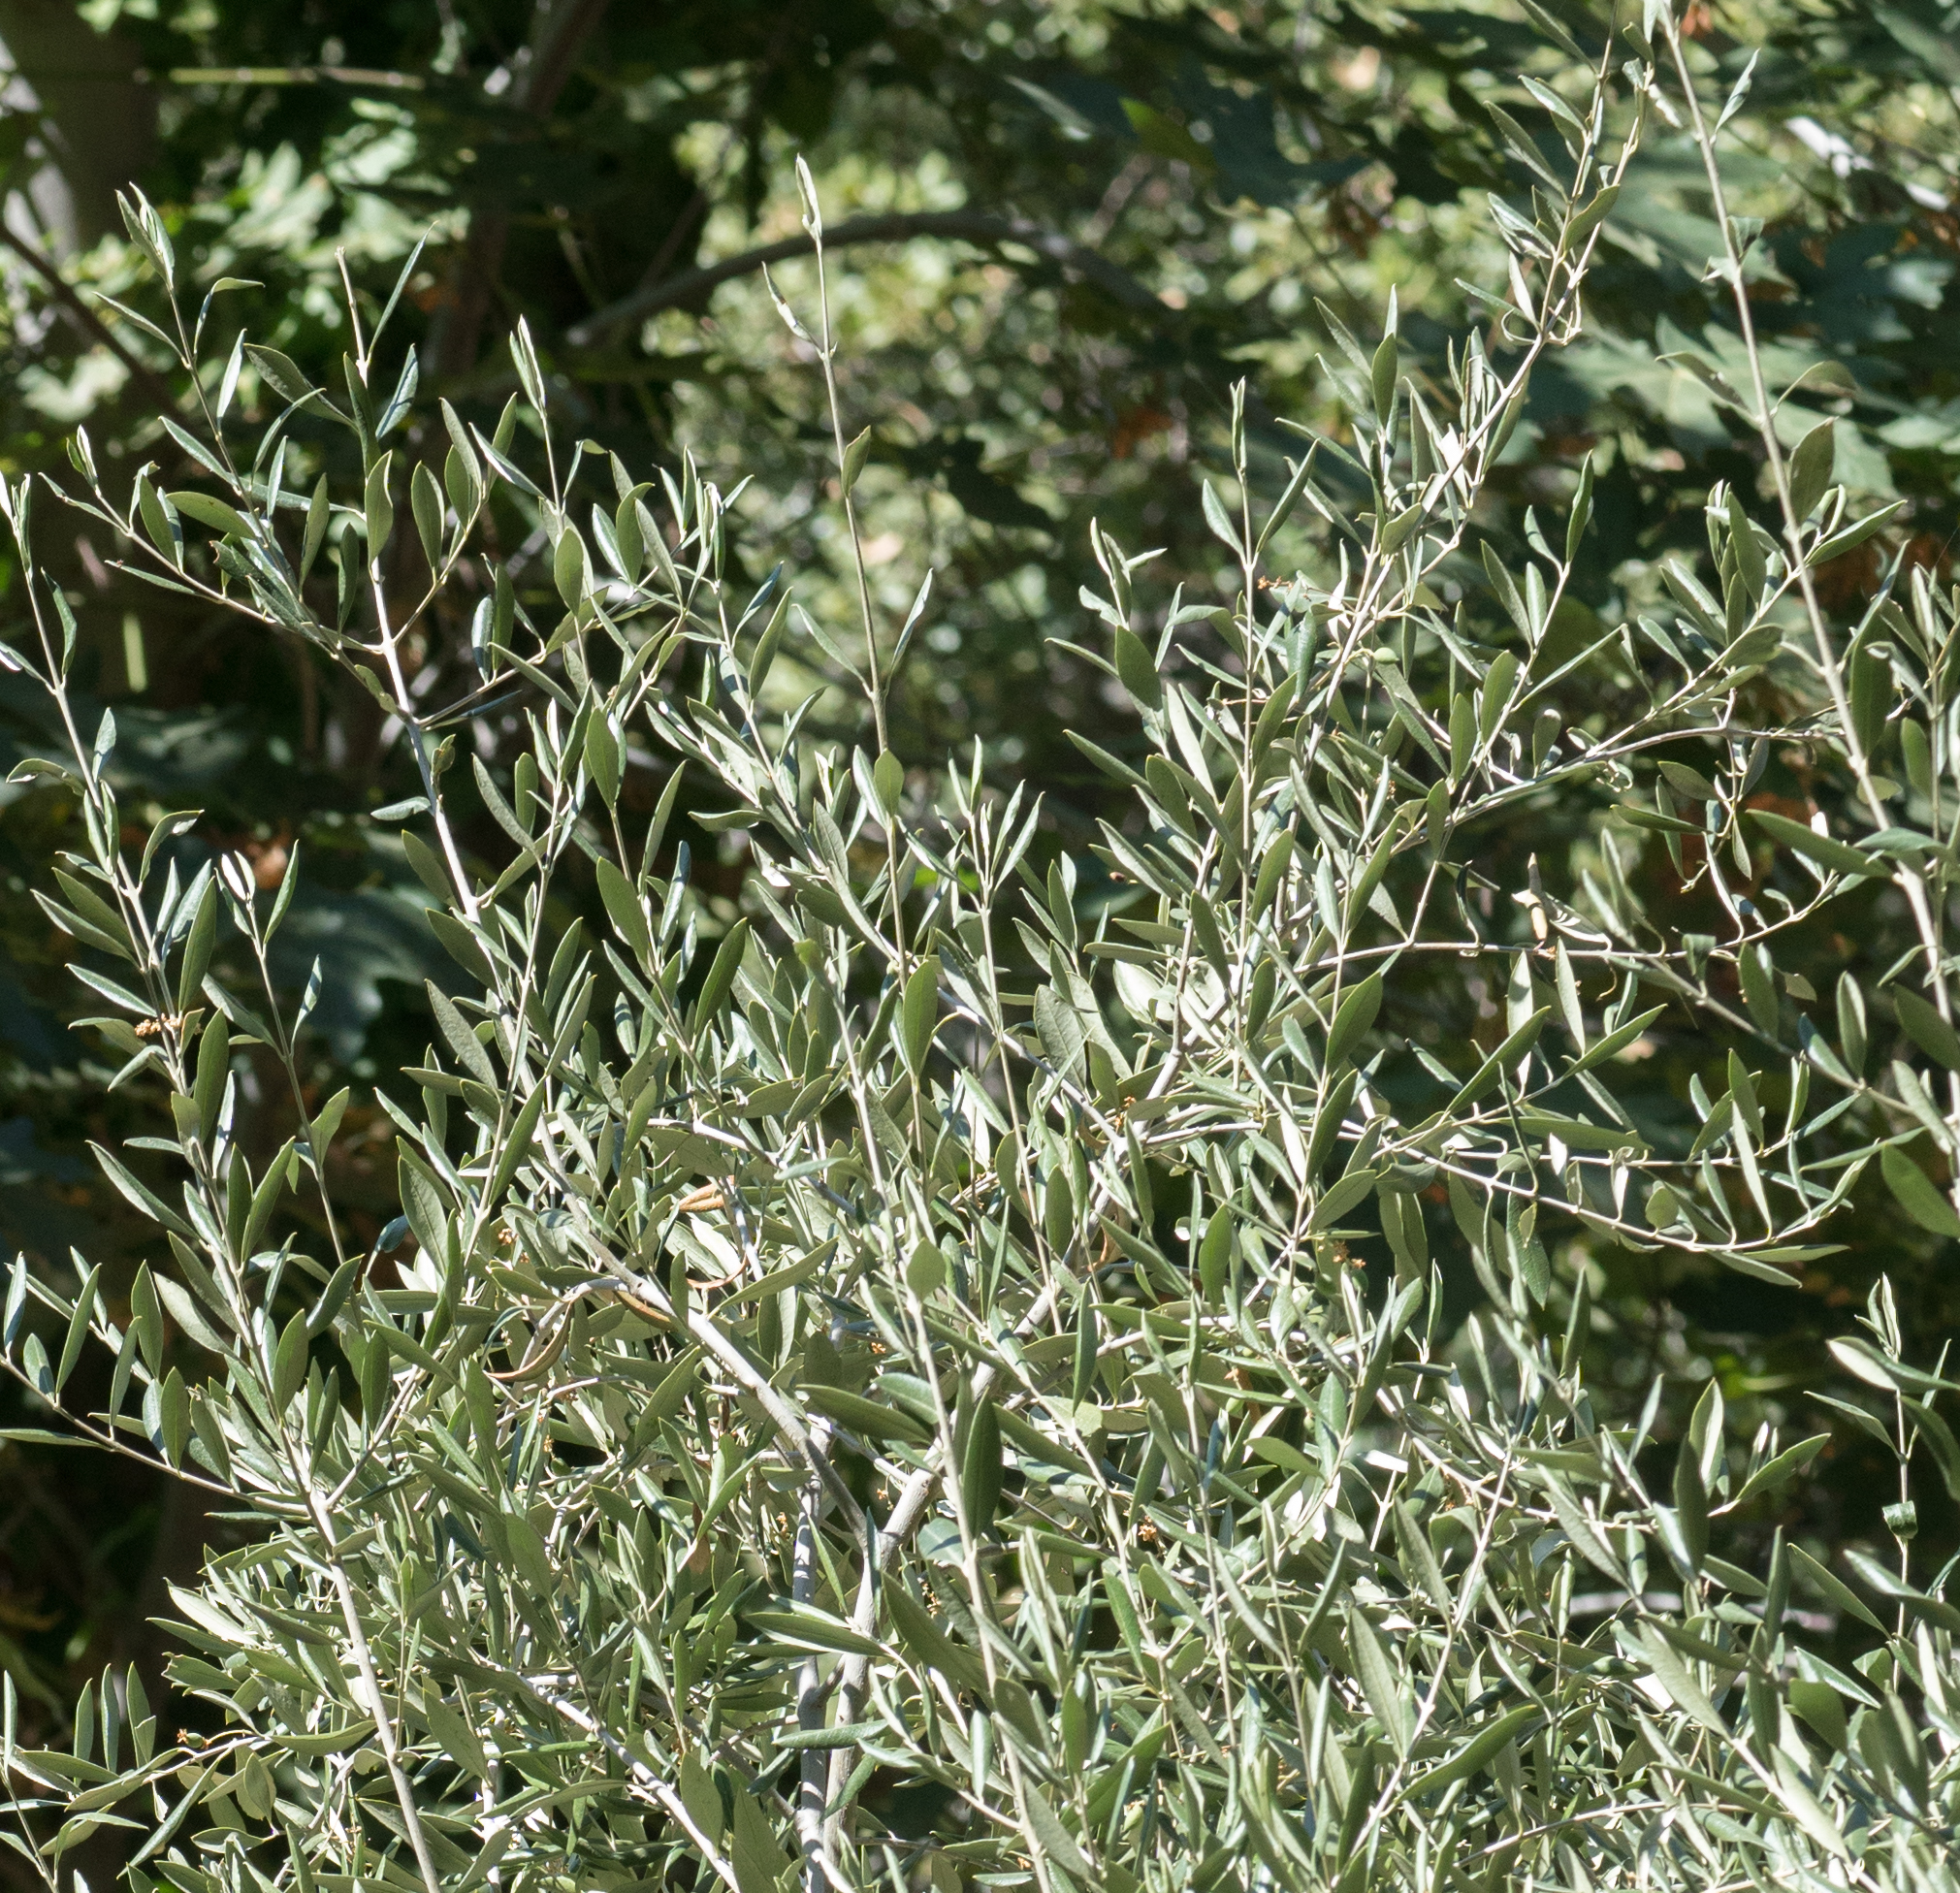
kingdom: Plantae
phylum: Tracheophyta
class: Magnoliopsida
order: Lamiales
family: Oleaceae
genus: Olea
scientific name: Olea europaea
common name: Olive
